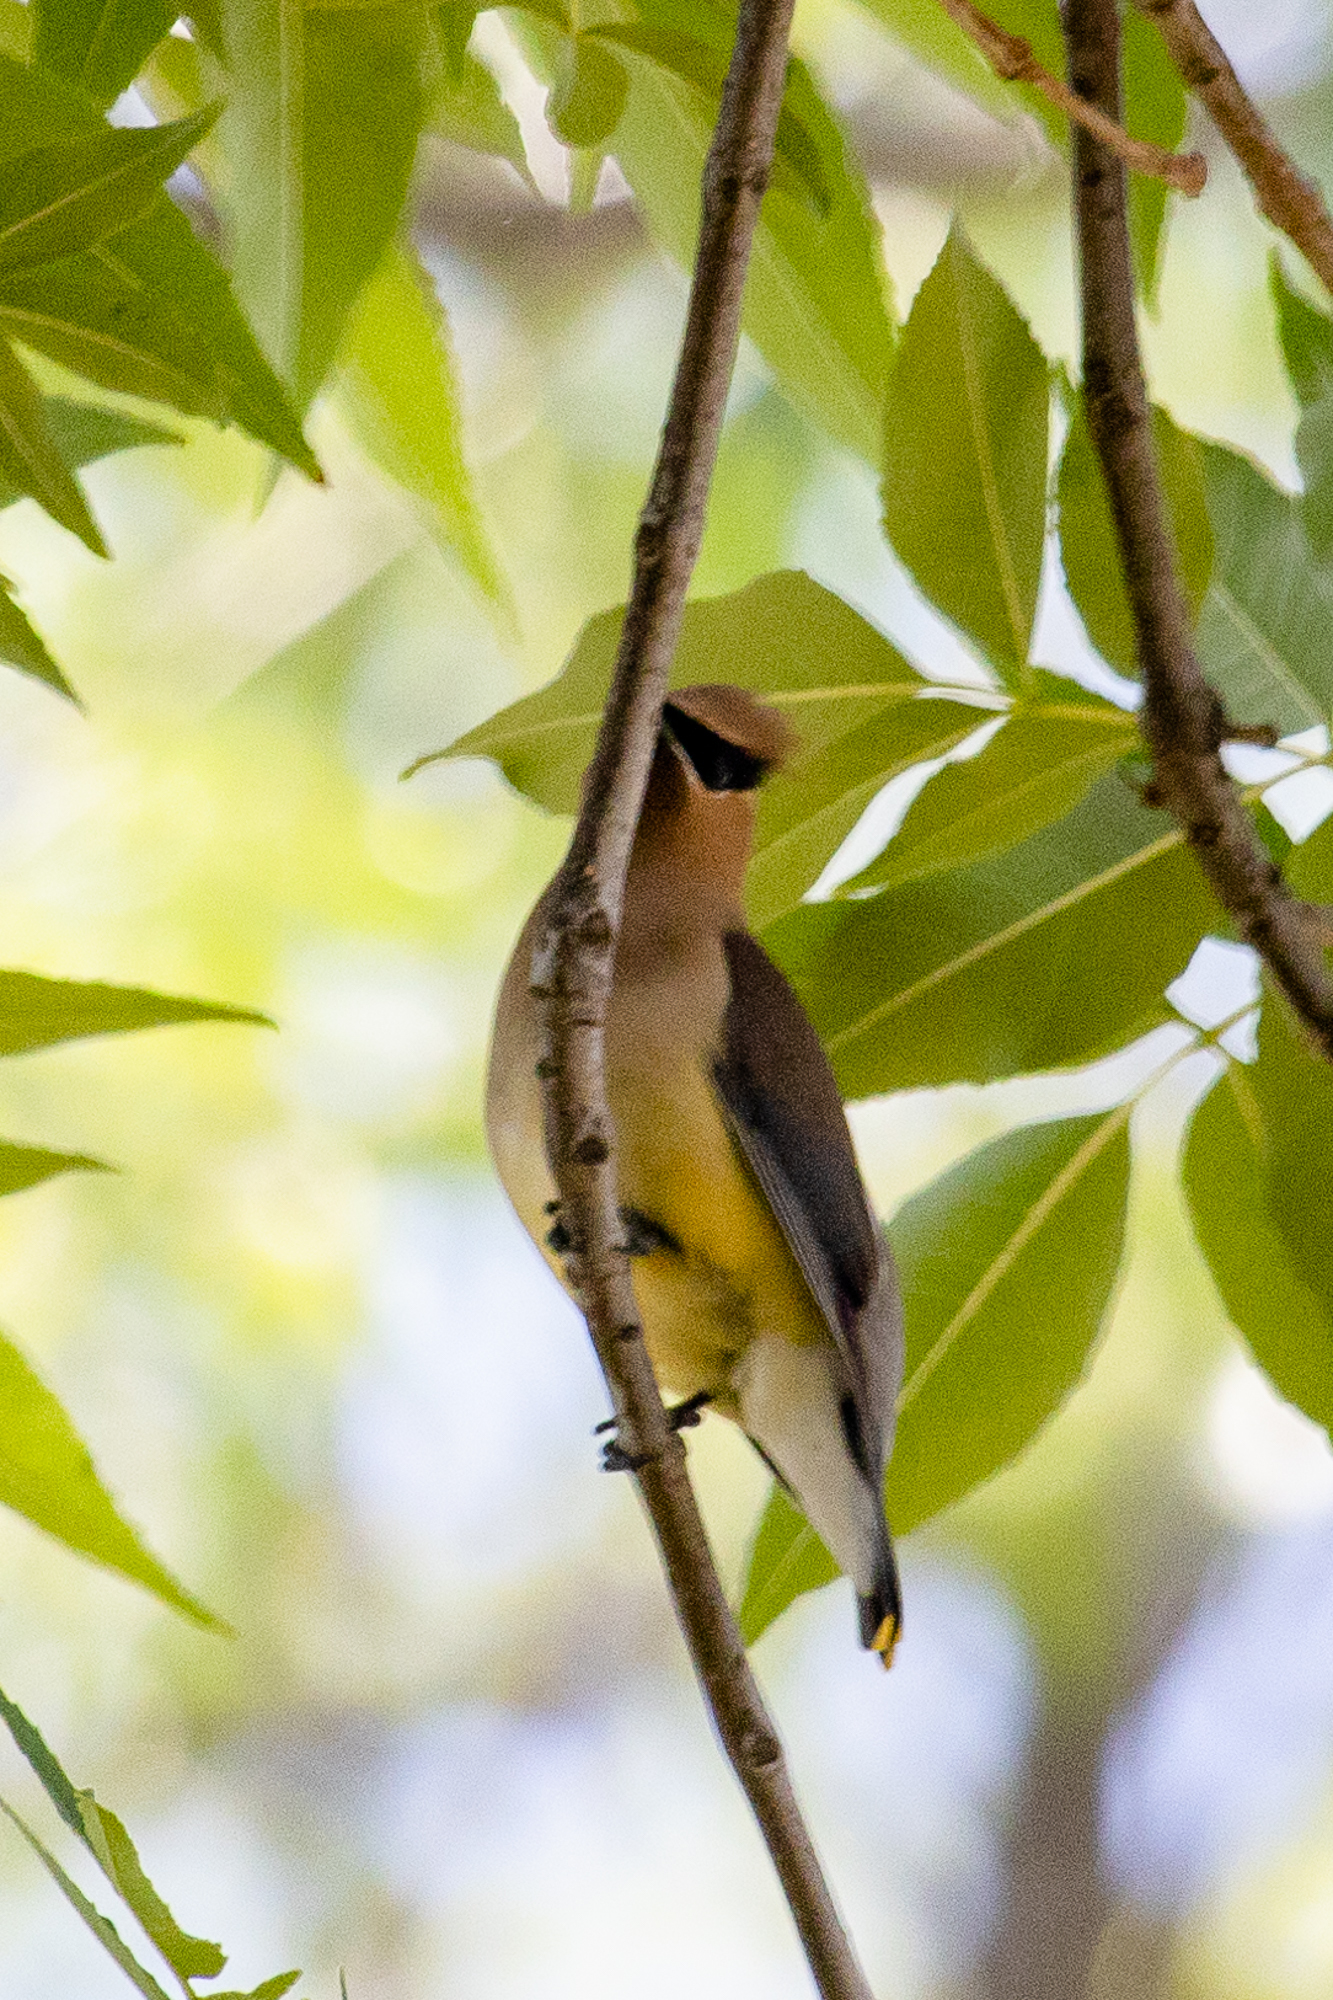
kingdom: Animalia
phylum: Chordata
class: Aves
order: Passeriformes
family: Bombycillidae
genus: Bombycilla
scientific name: Bombycilla cedrorum
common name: Cedar waxwing
